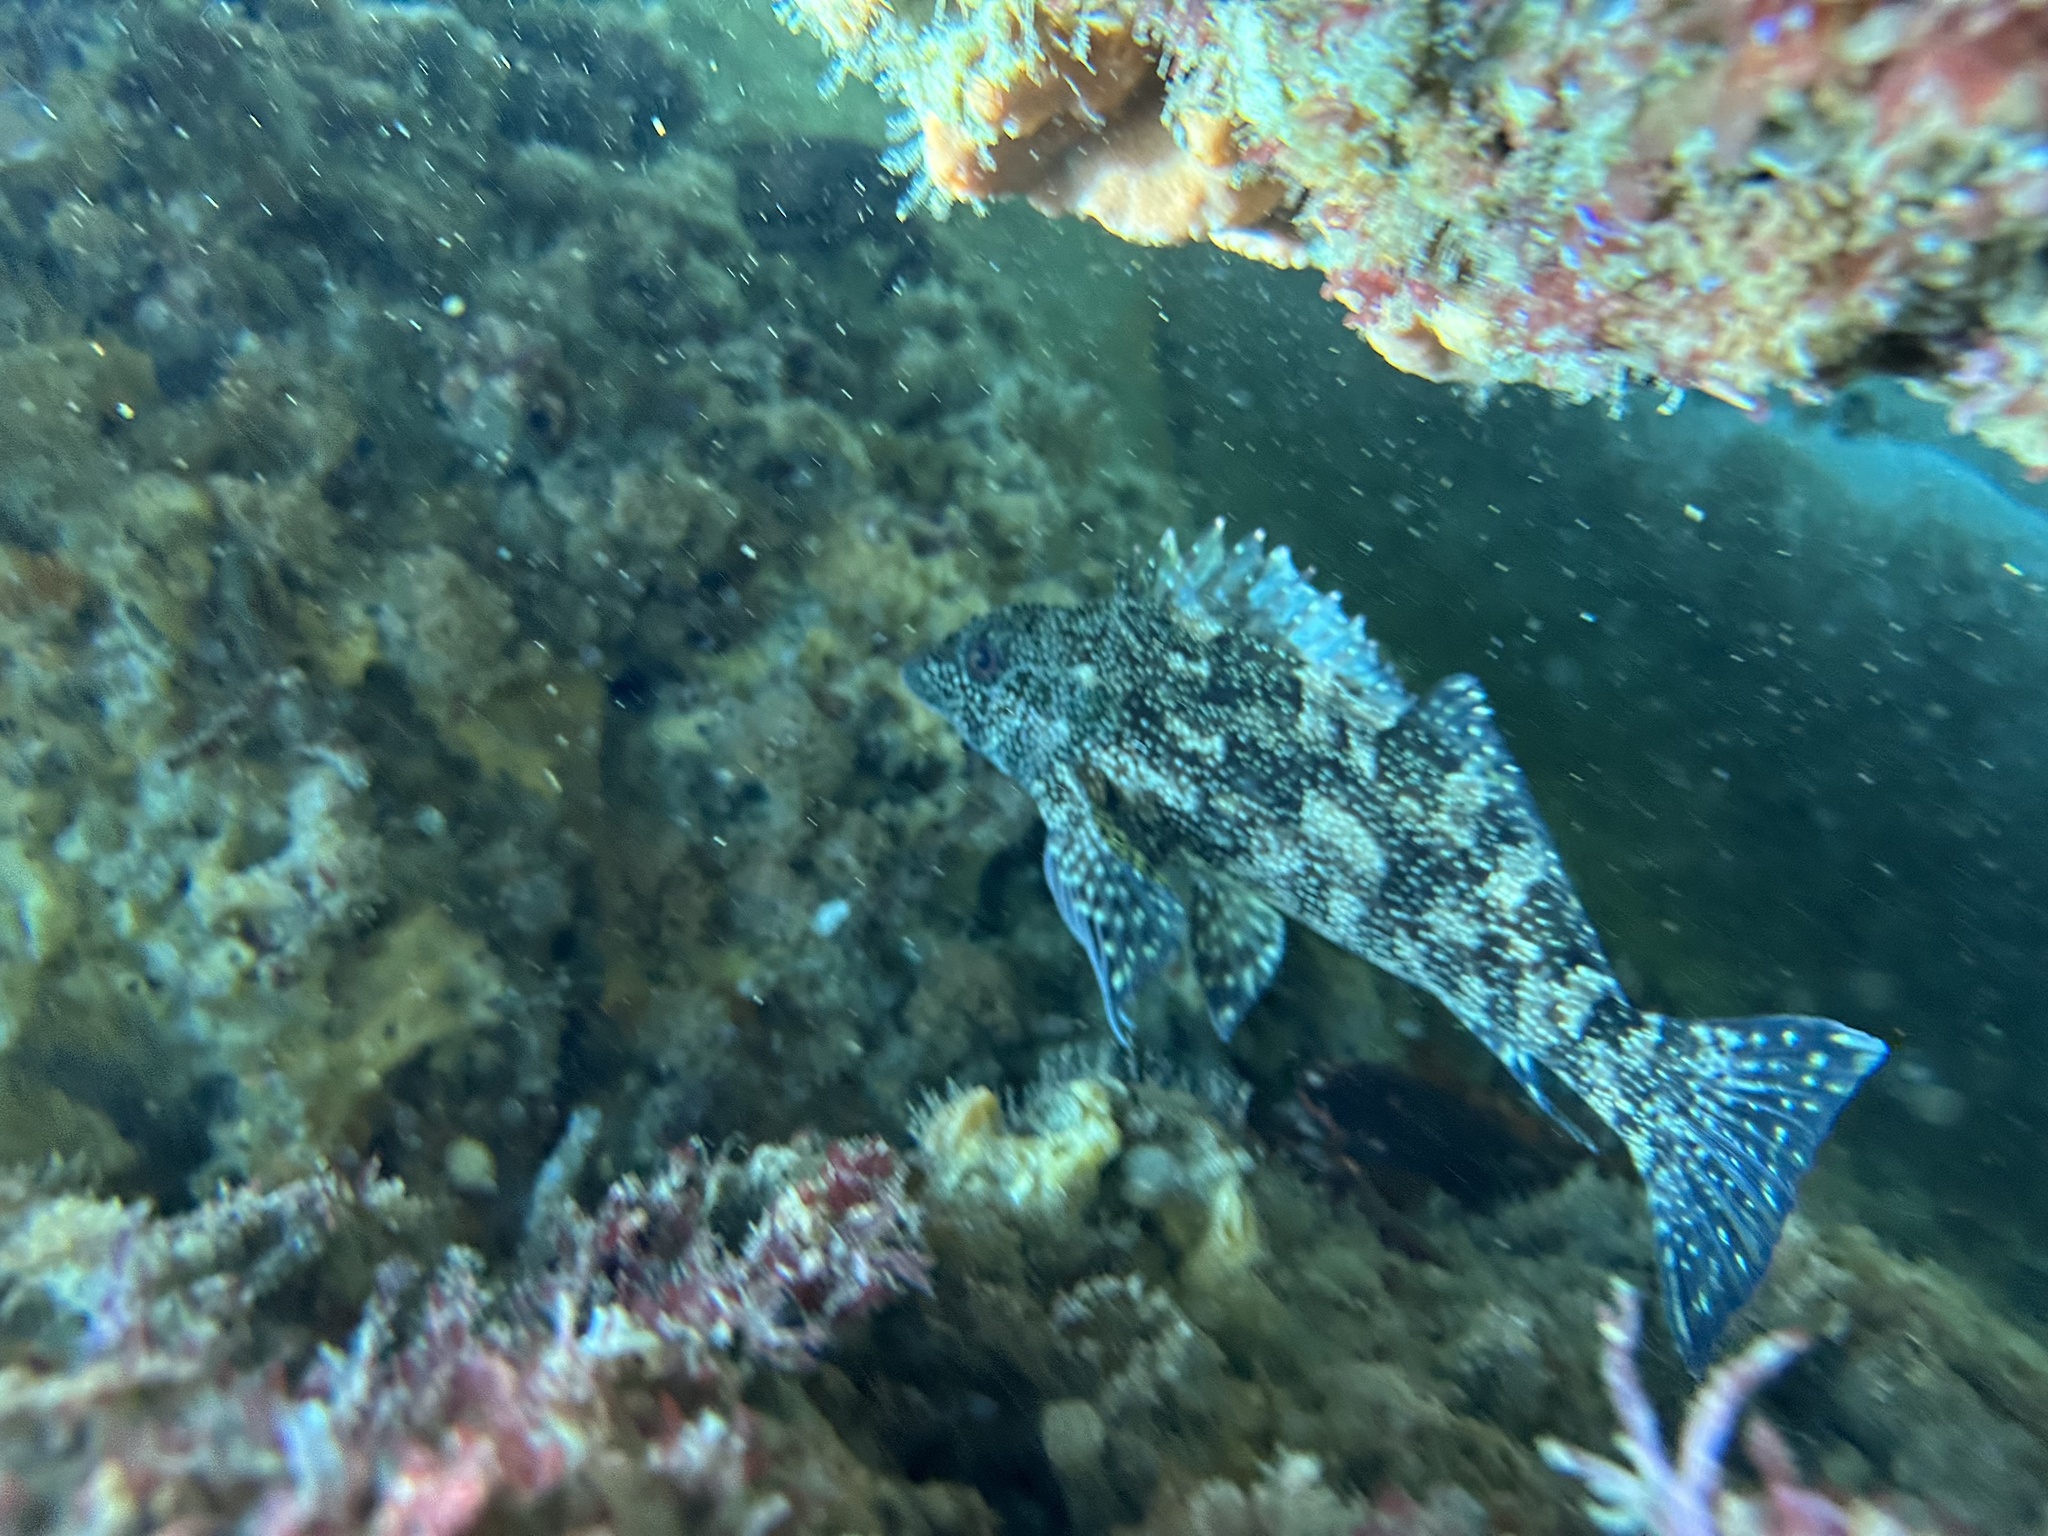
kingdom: Animalia
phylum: Chordata
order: Perciformes
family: Chironemidae
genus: Chironemus
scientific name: Chironemus marmoratus
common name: Kelpfish
